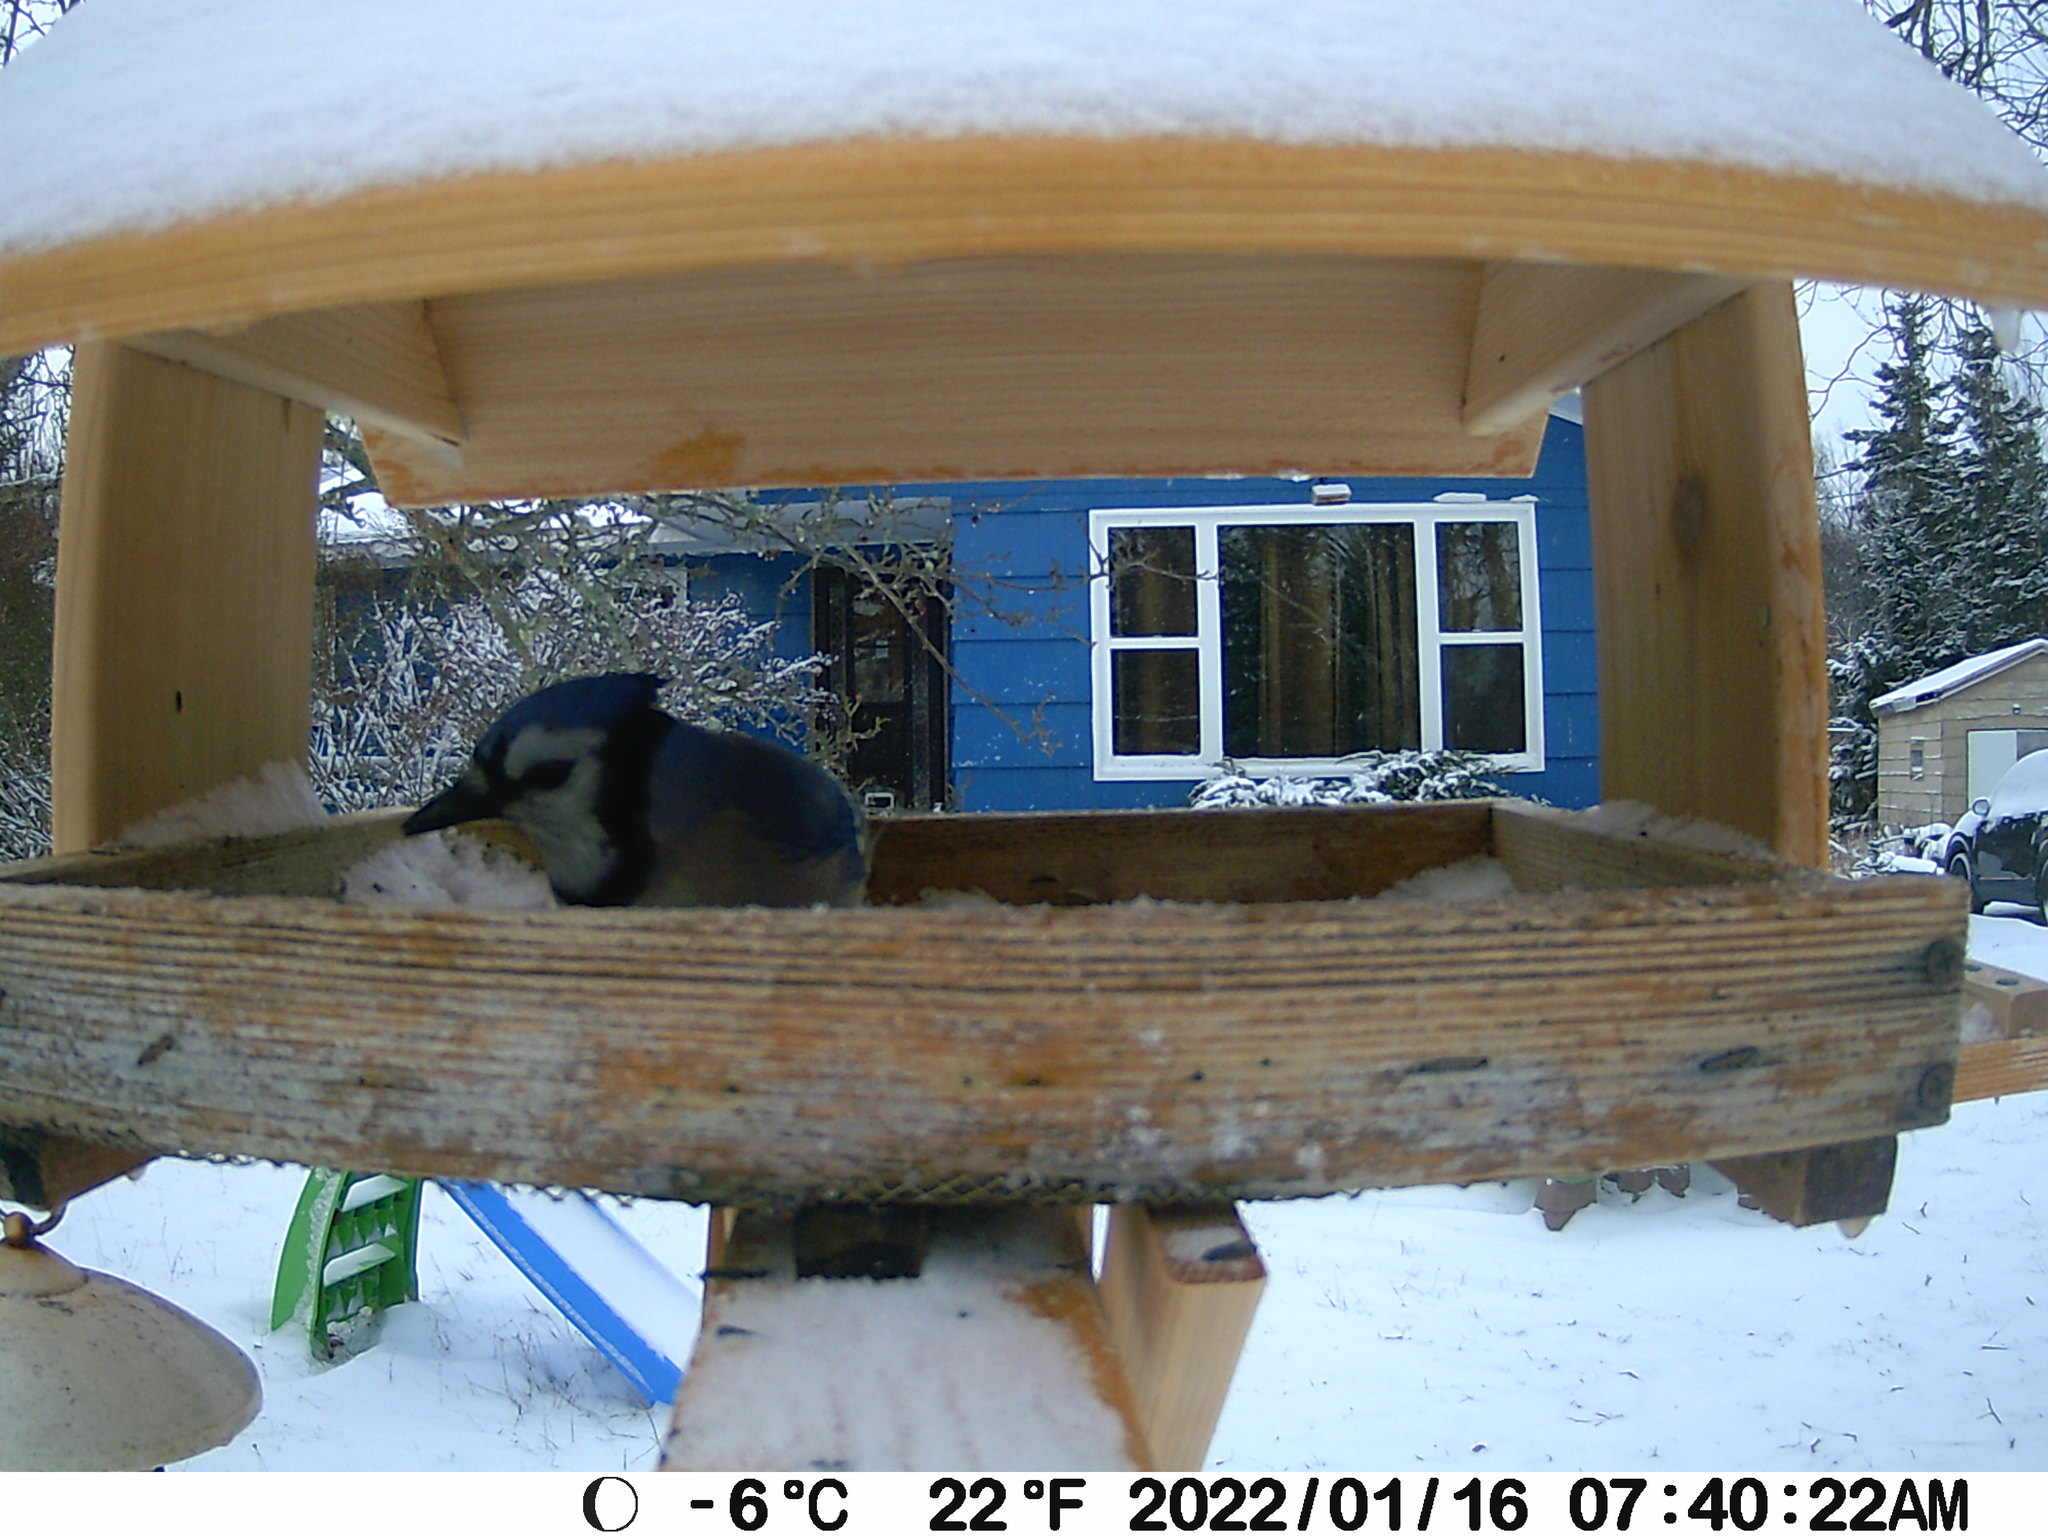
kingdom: Animalia
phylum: Chordata
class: Aves
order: Passeriformes
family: Corvidae
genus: Cyanocitta
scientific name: Cyanocitta cristata
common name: Blue jay
